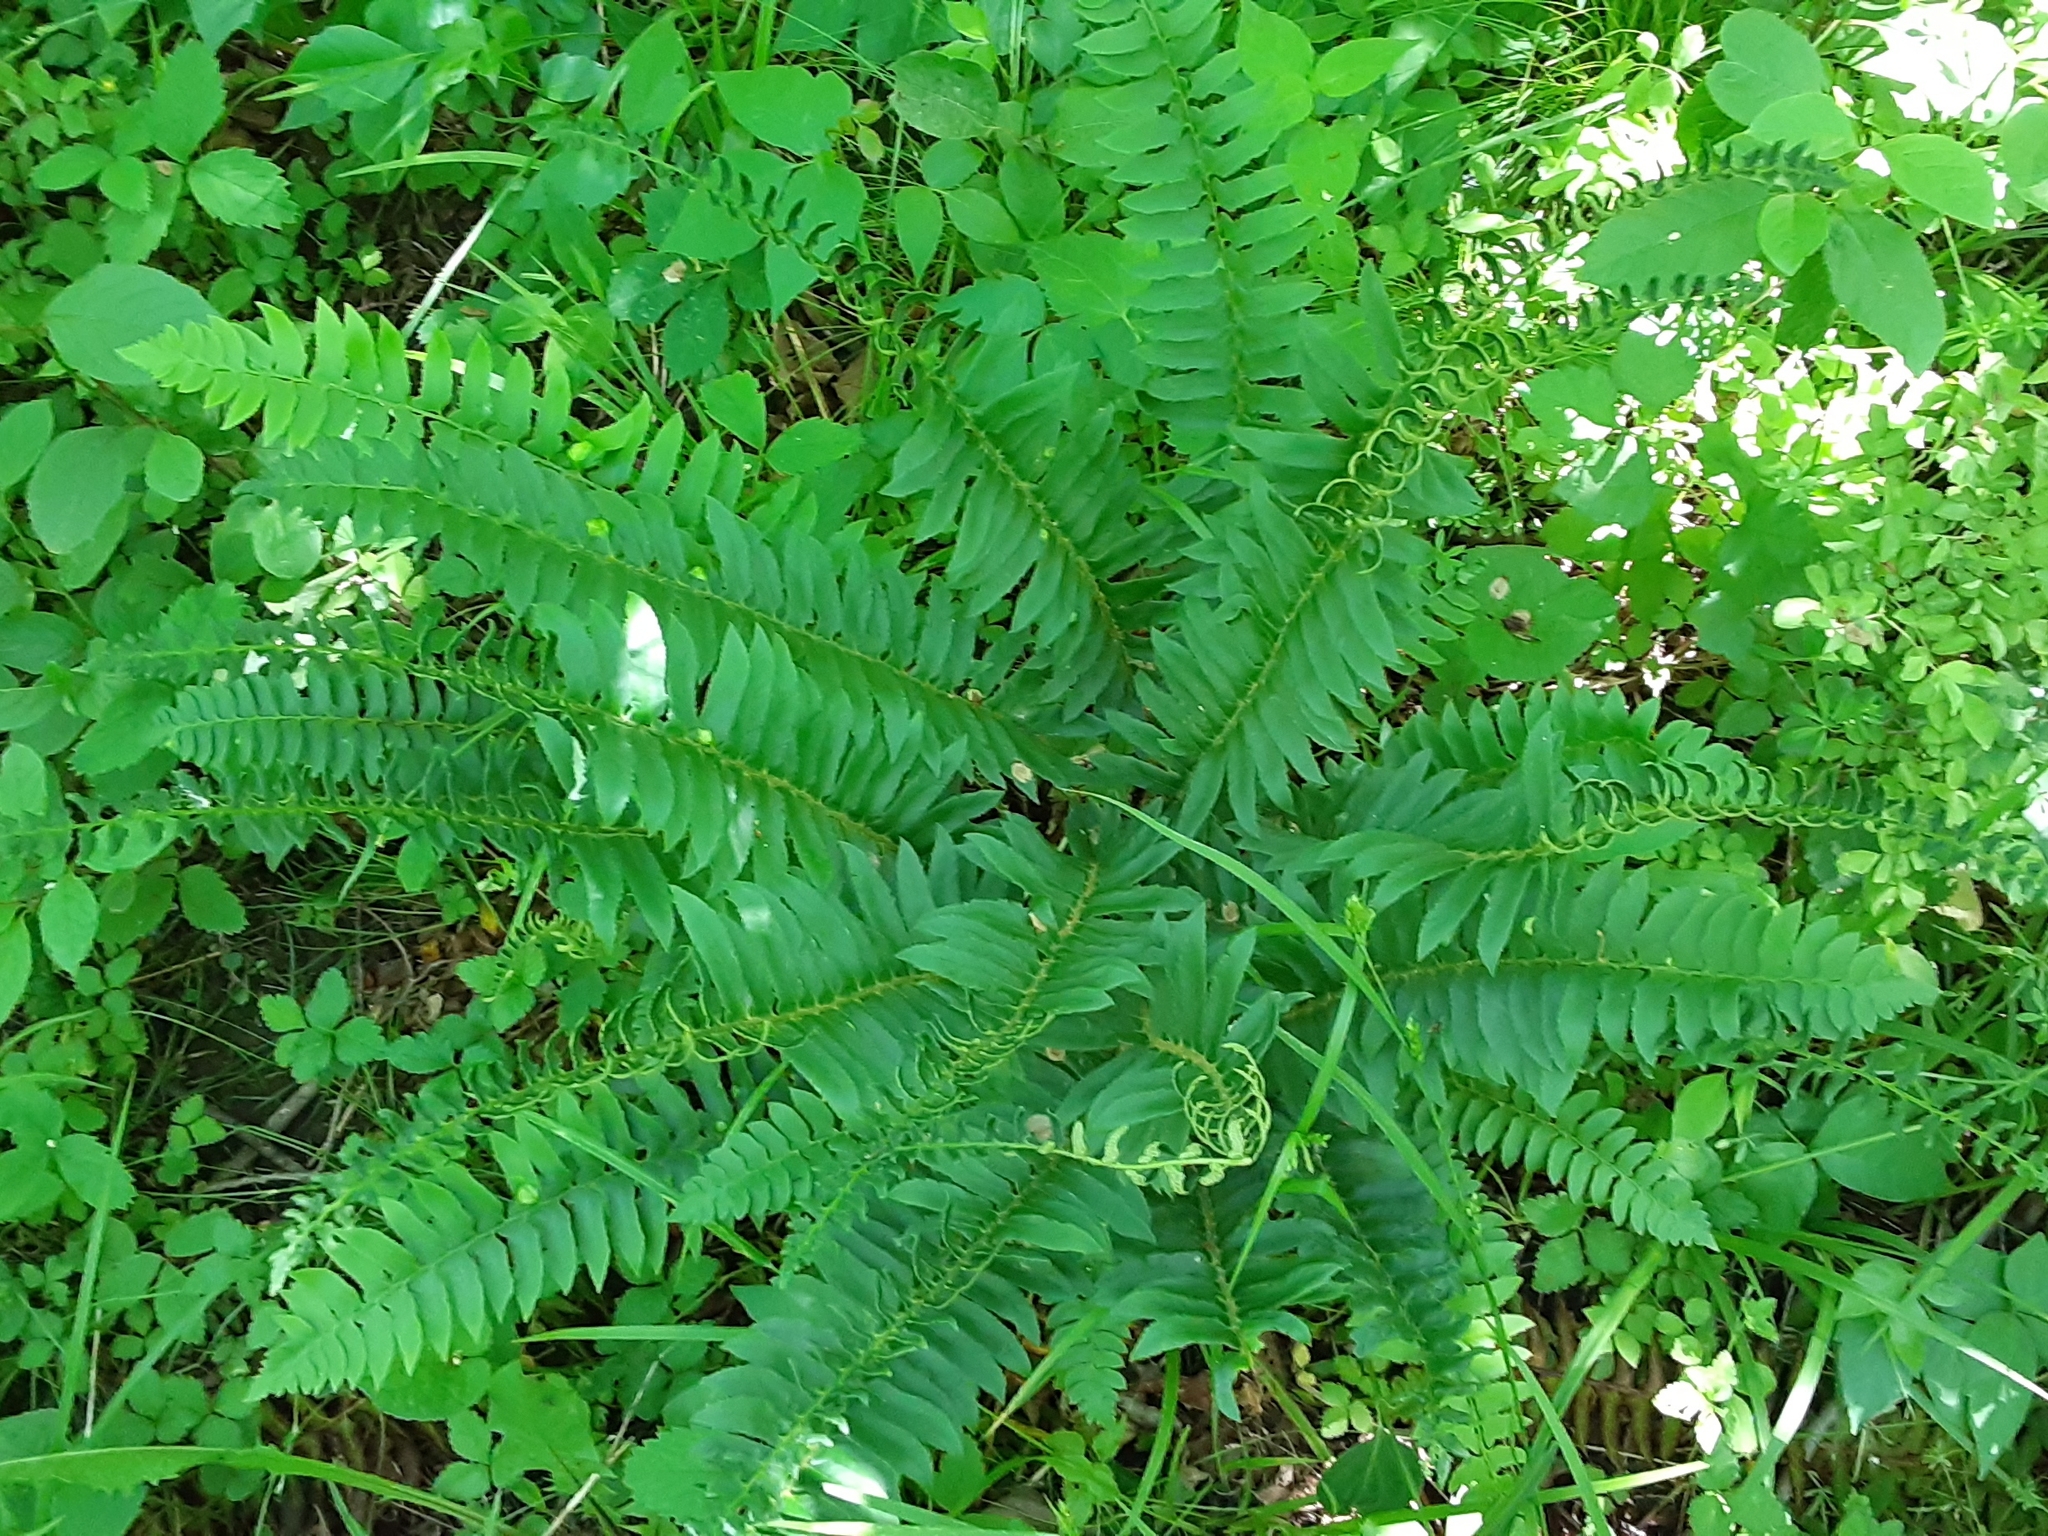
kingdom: Plantae
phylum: Tracheophyta
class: Polypodiopsida
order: Polypodiales
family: Dryopteridaceae
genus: Polystichum
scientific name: Polystichum acrostichoides
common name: Christmas fern
